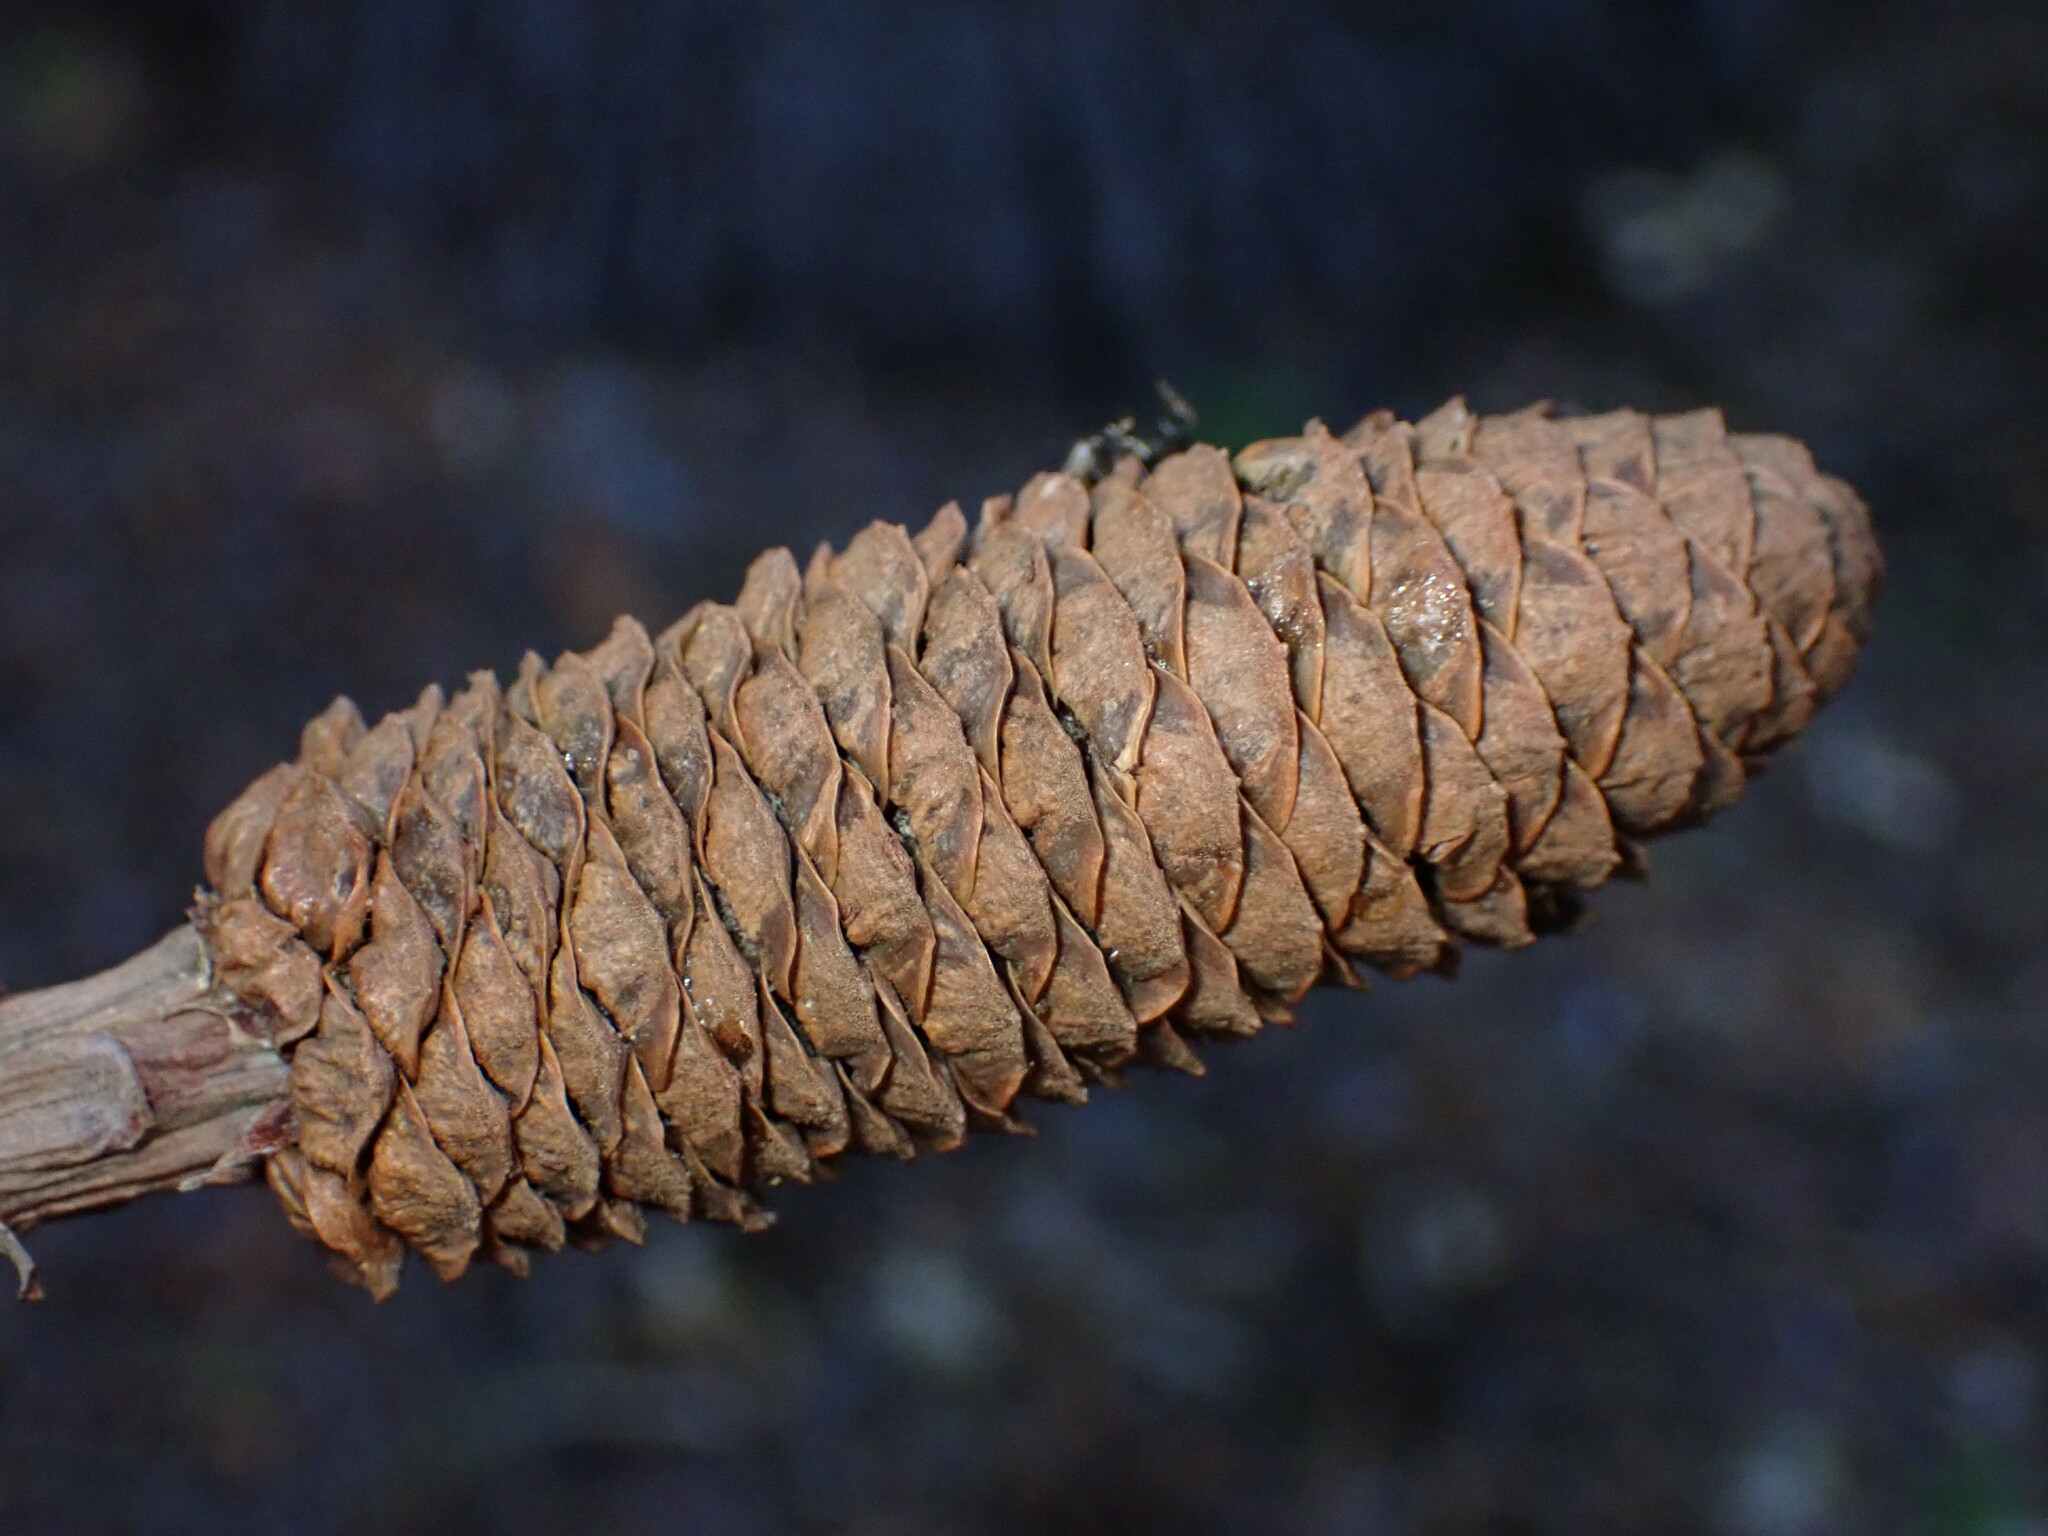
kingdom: Plantae
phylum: Tracheophyta
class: Pinopsida
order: Pinales
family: Pinaceae
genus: Pinus
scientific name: Pinus lambertiana
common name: Sugar pine
